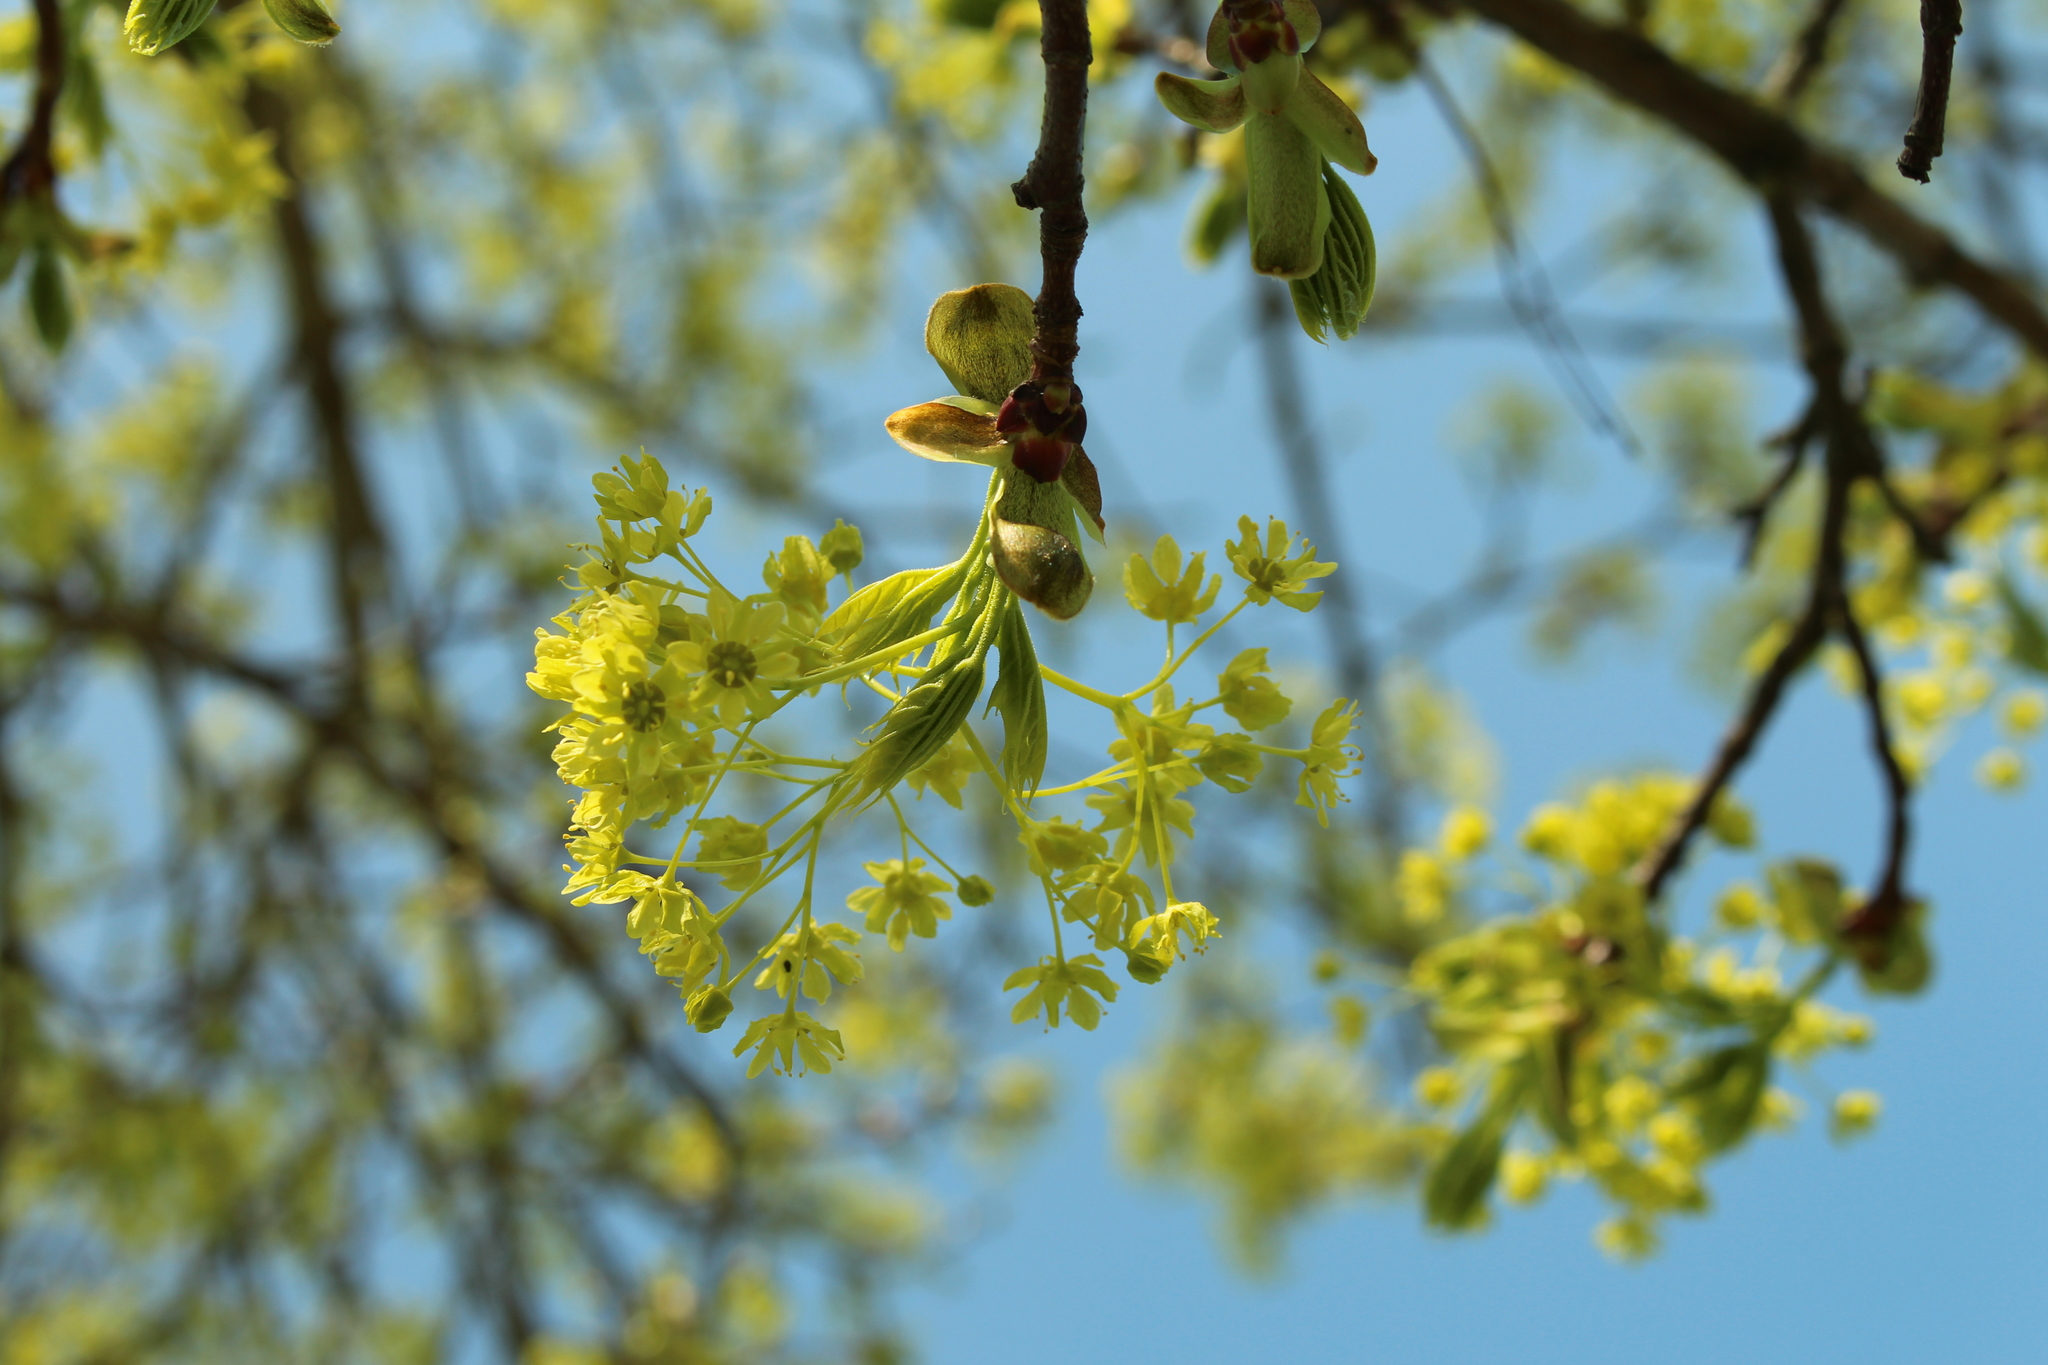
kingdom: Plantae
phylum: Tracheophyta
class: Magnoliopsida
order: Sapindales
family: Sapindaceae
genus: Acer
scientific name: Acer platanoides
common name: Norway maple
